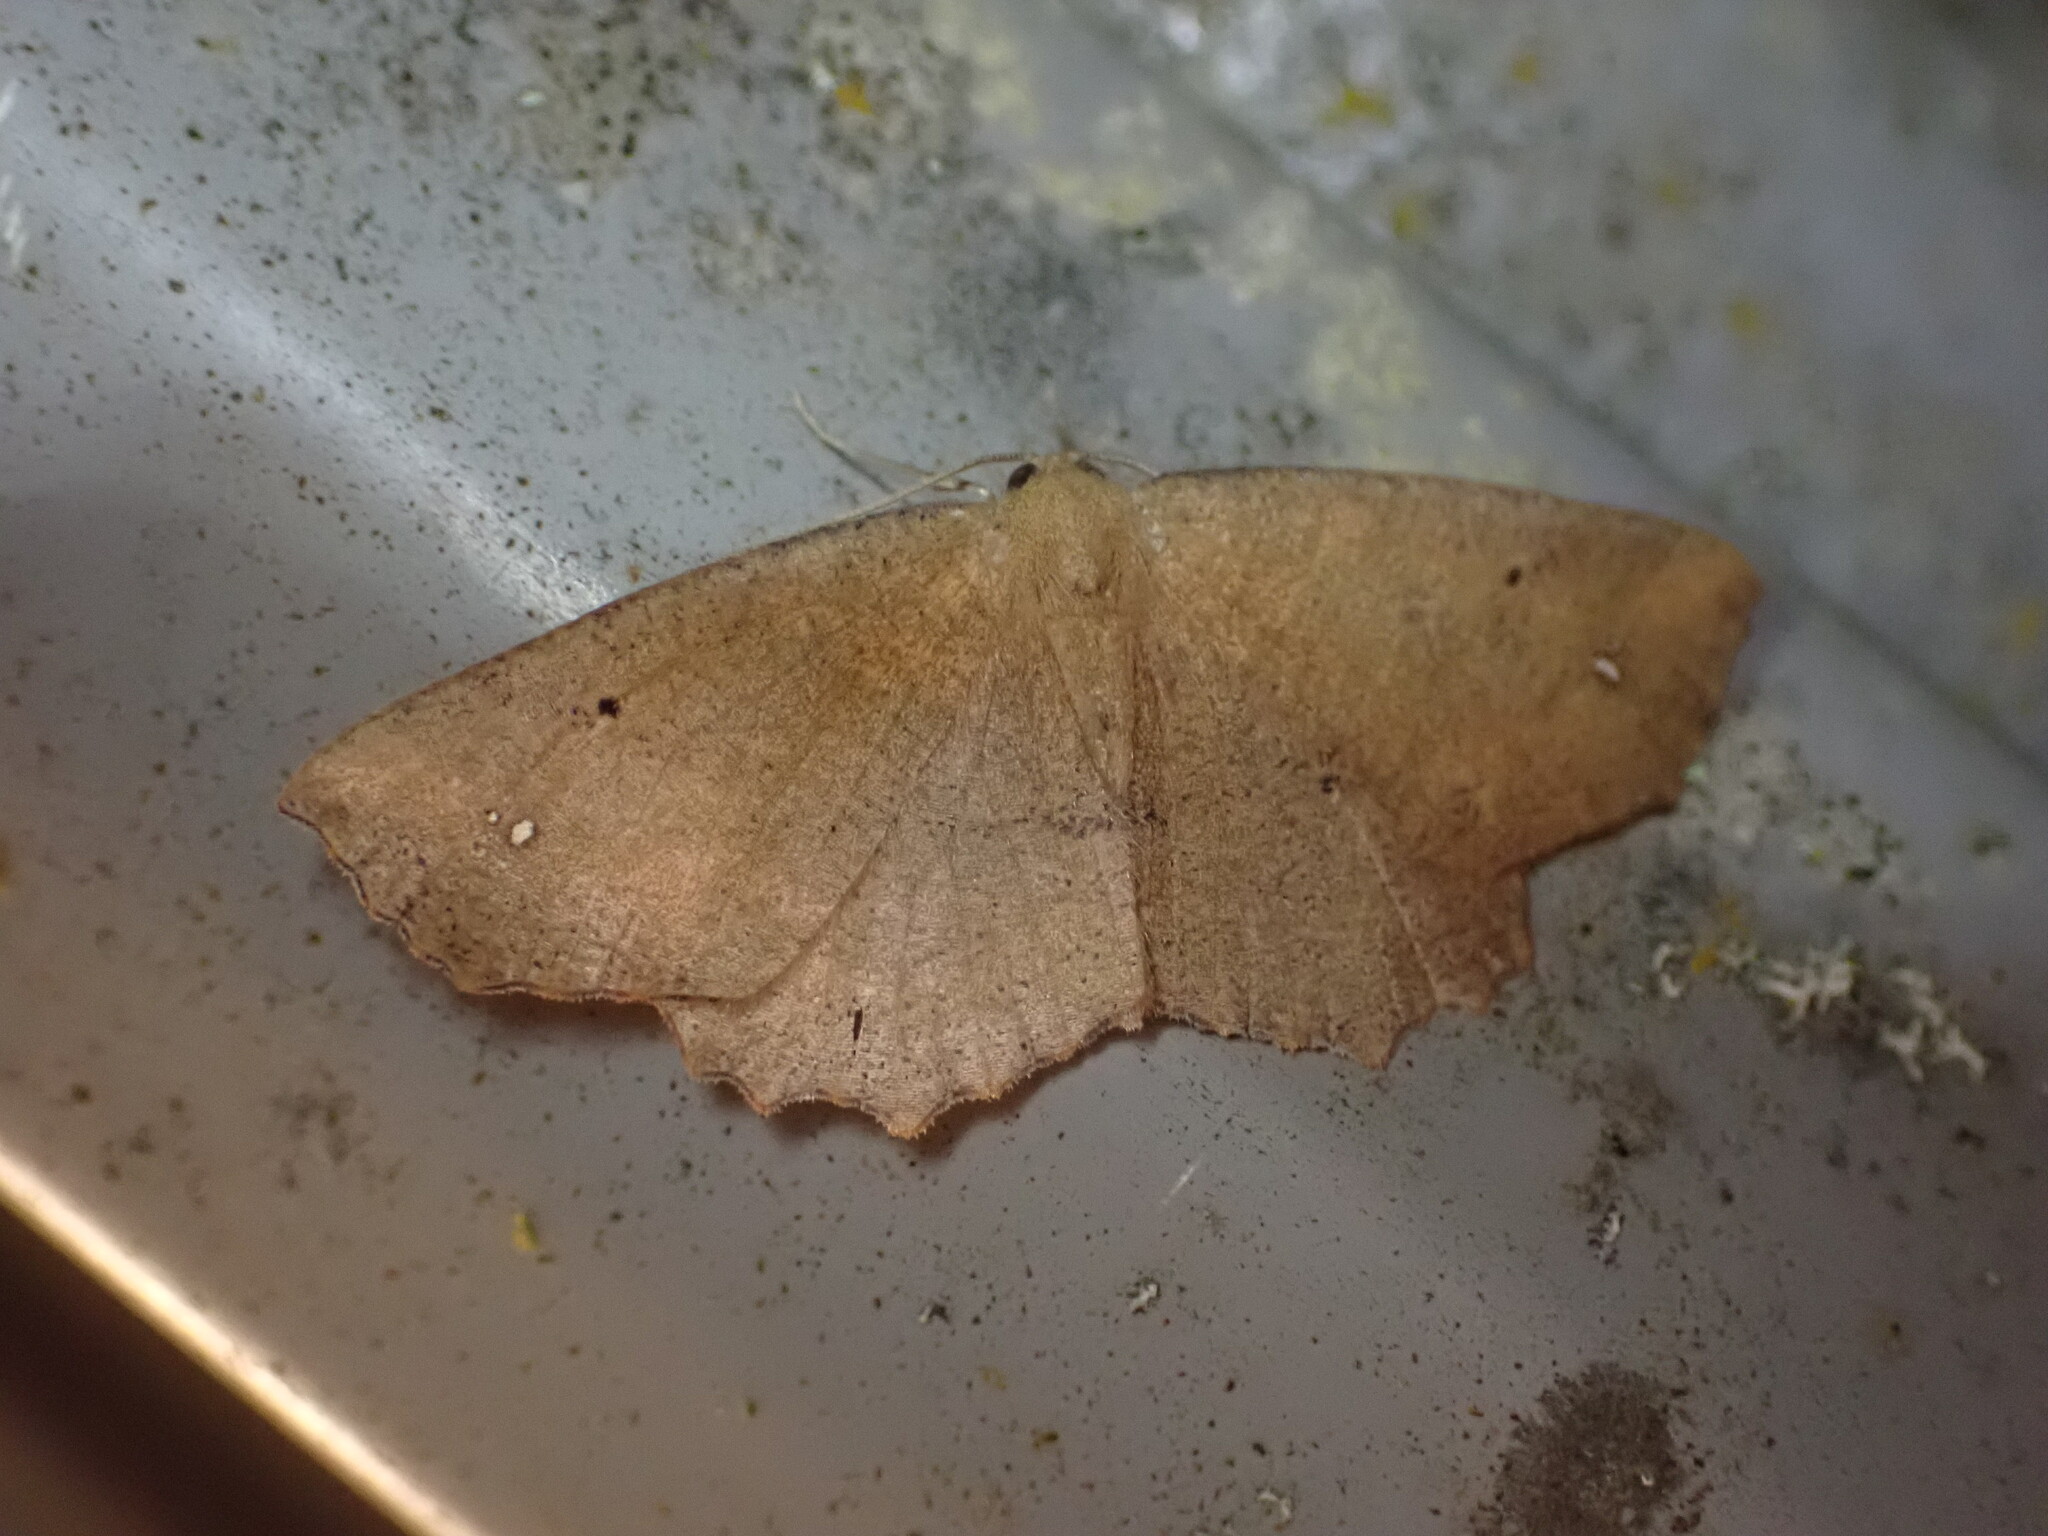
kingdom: Animalia
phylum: Arthropoda
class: Insecta
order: Lepidoptera
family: Geometridae
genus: Xyridacma
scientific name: Xyridacma ustaria
